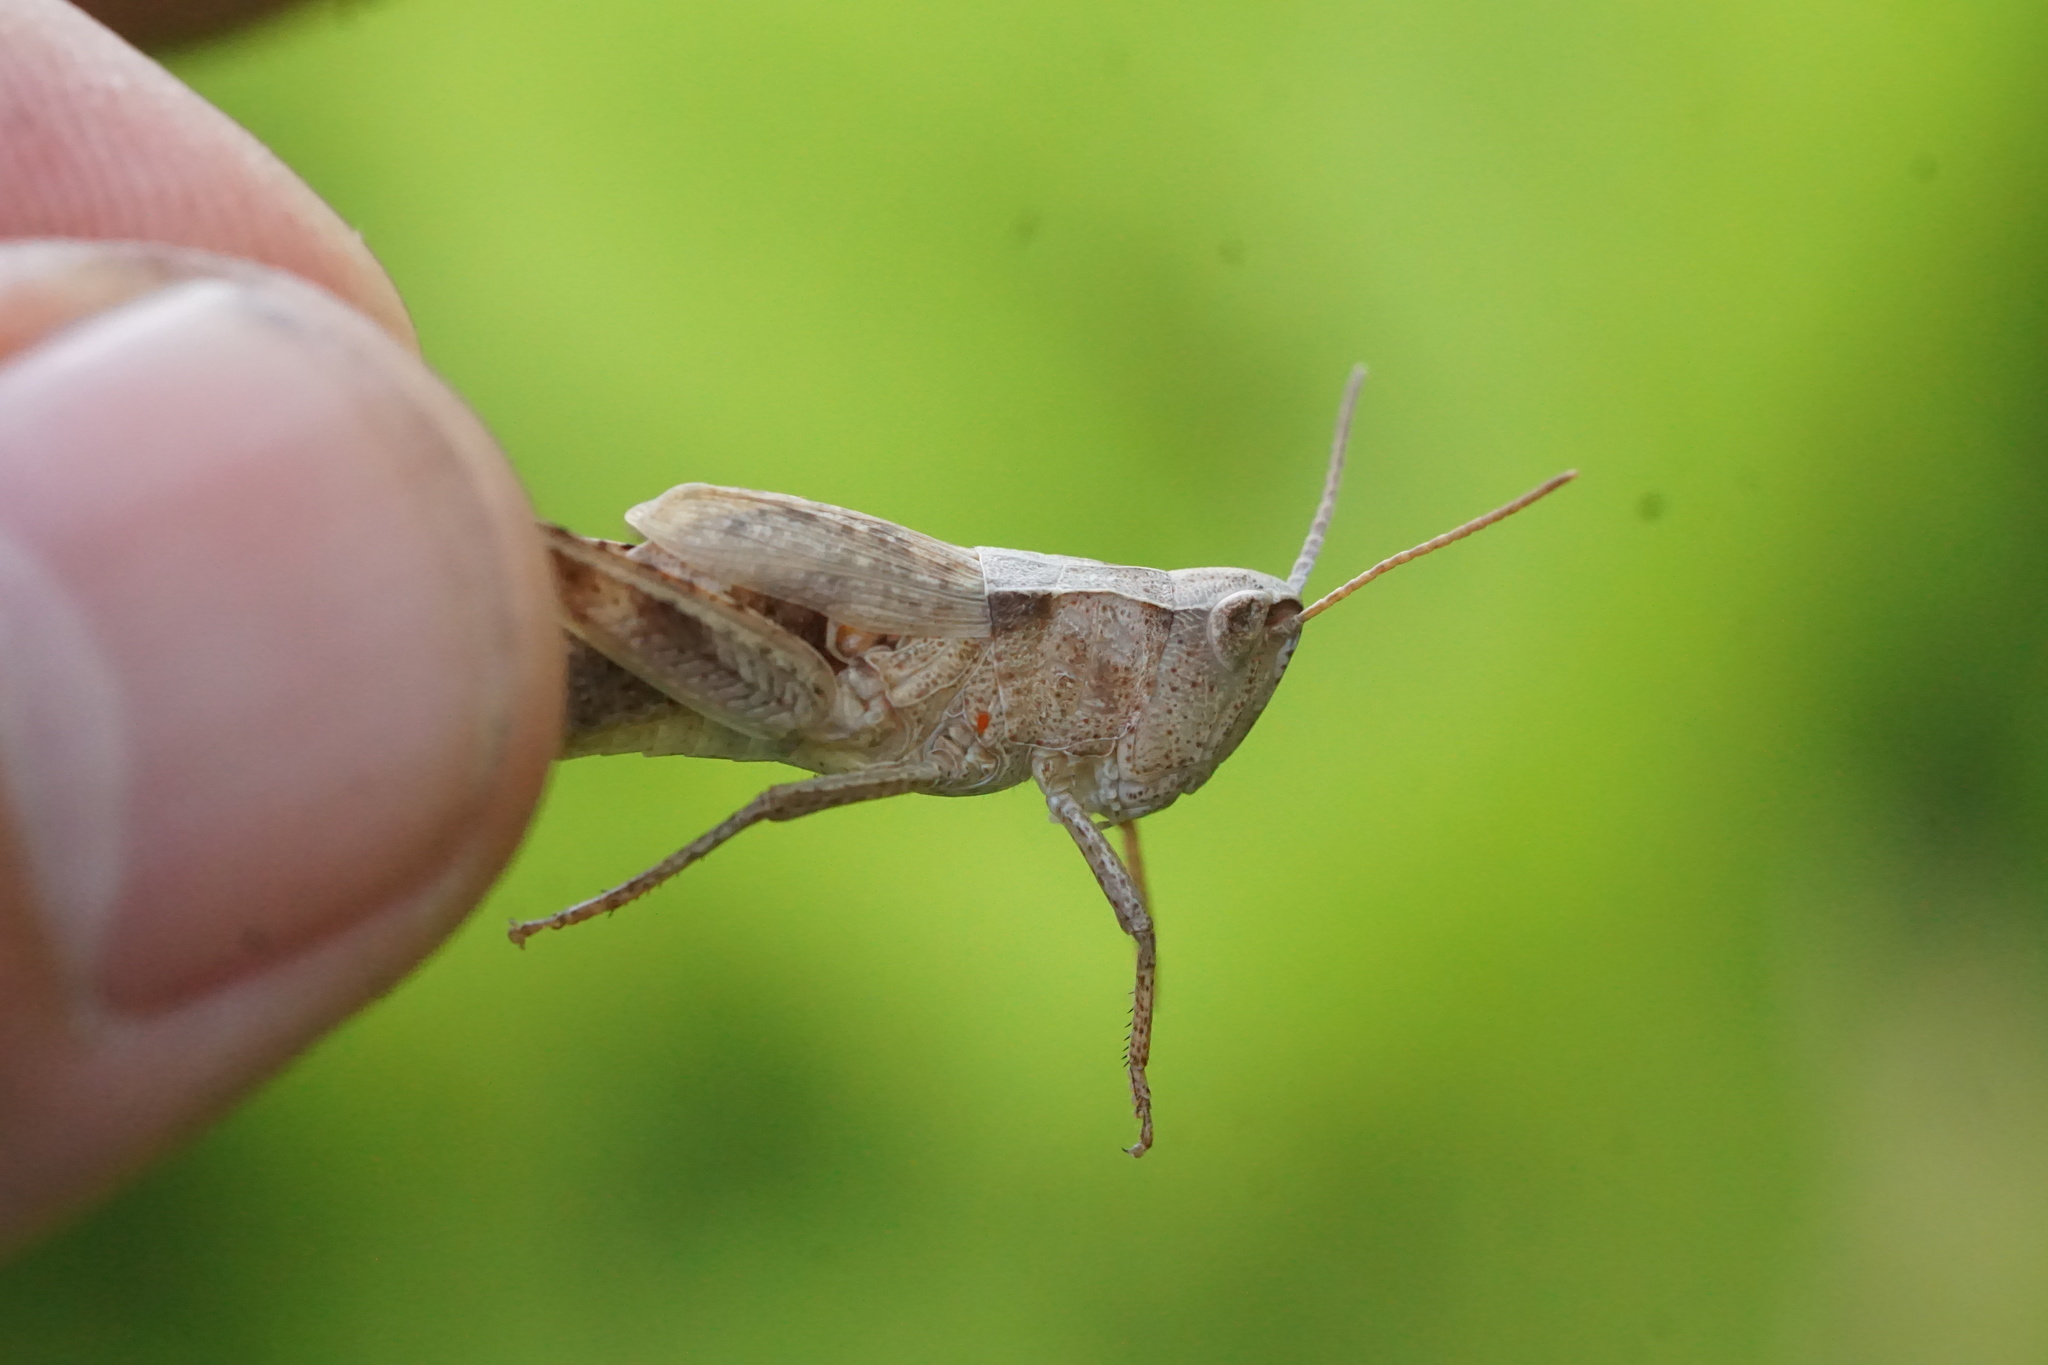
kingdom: Animalia
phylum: Arthropoda
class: Insecta
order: Orthoptera
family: Acrididae
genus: Chloealtis
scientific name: Chloealtis conspersa
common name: Sprinkled broad-winged grasshopper
